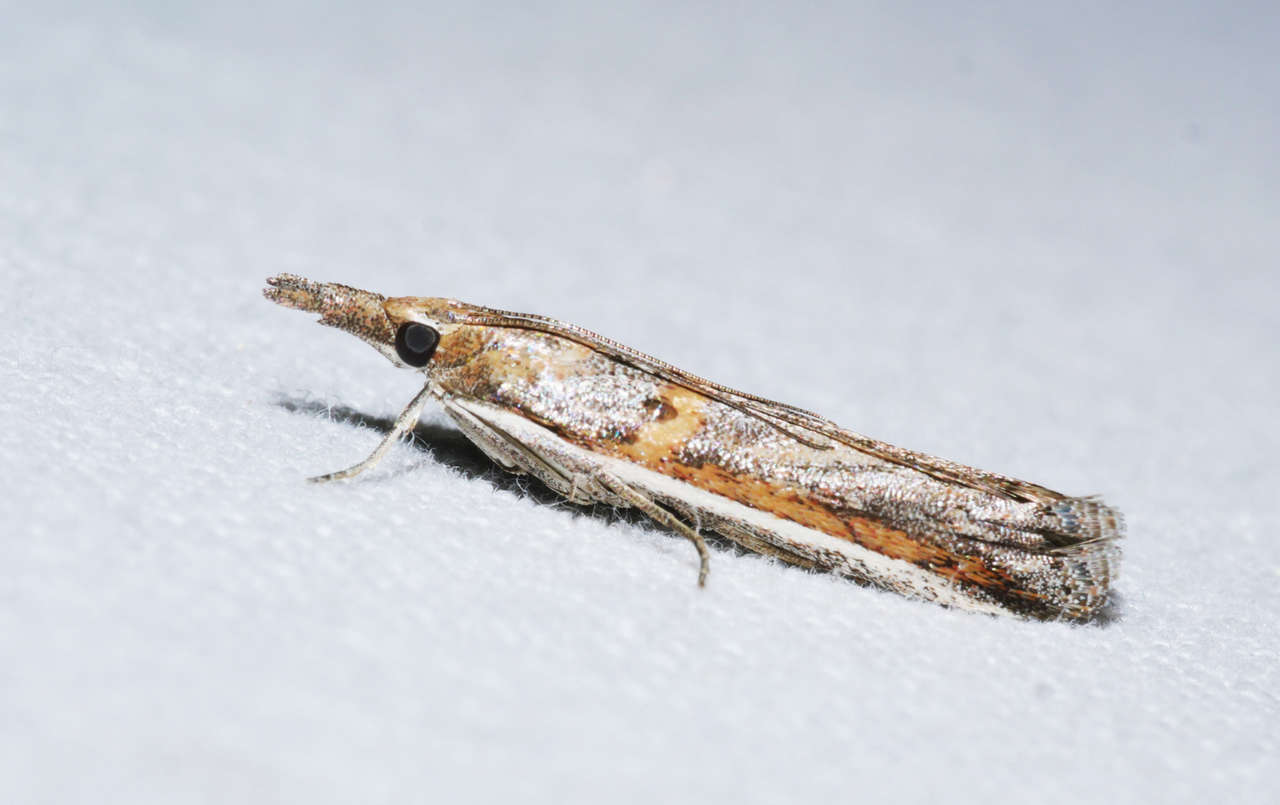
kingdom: Animalia
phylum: Arthropoda
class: Insecta
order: Lepidoptera
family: Pyralidae
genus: Etiella
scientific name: Etiella behrii
